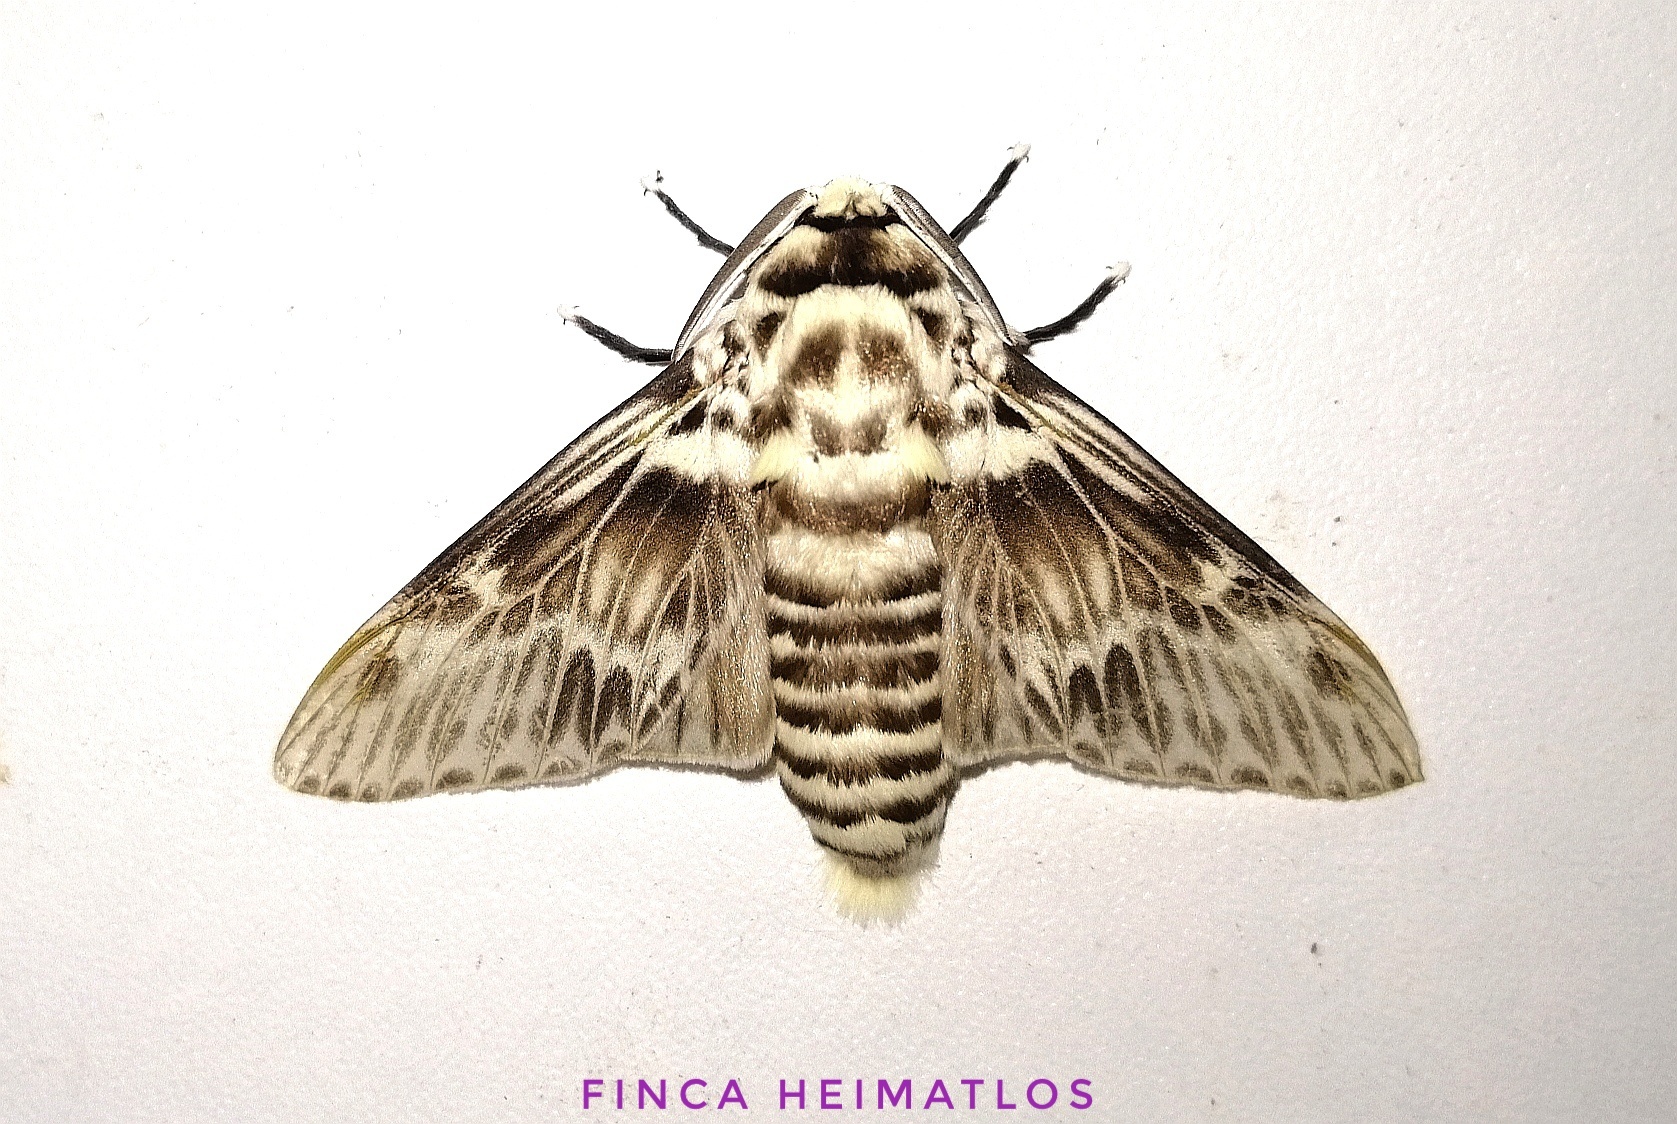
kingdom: Animalia
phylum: Arthropoda
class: Insecta
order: Lepidoptera
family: Megalopygidae
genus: Podalia
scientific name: Podalia orsilochus
